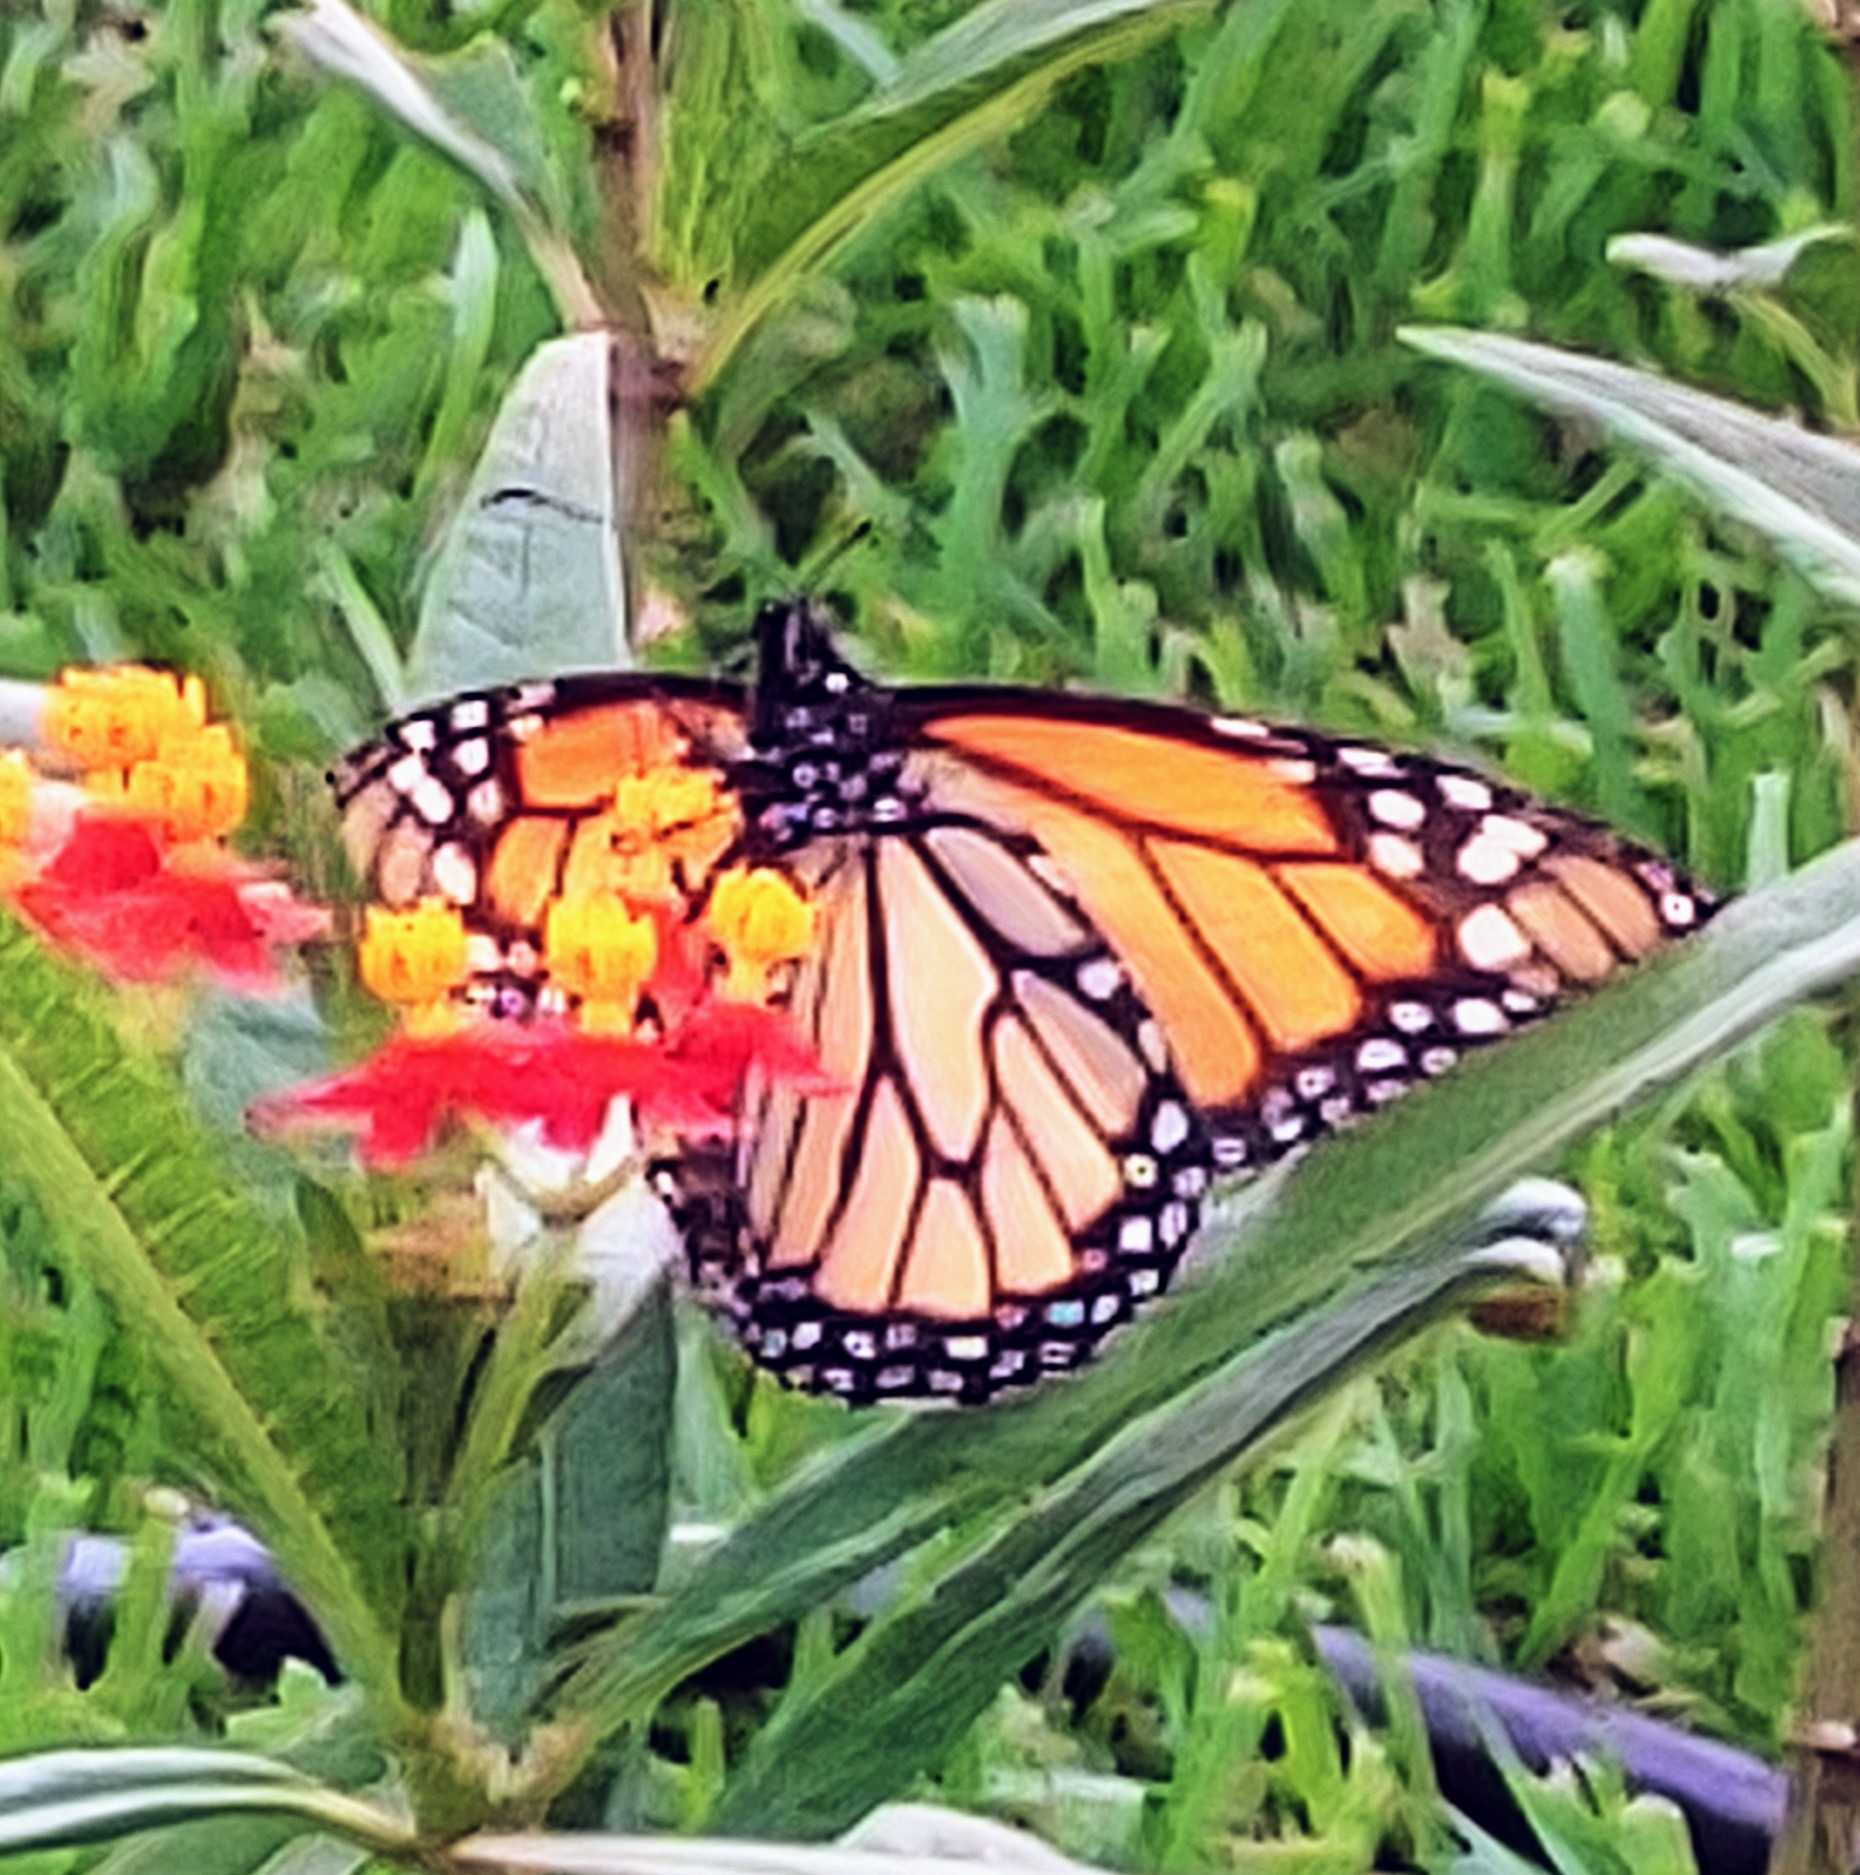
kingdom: Animalia
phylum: Arthropoda
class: Insecta
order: Lepidoptera
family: Nymphalidae
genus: Danaus
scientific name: Danaus plexippus
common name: Monarch
